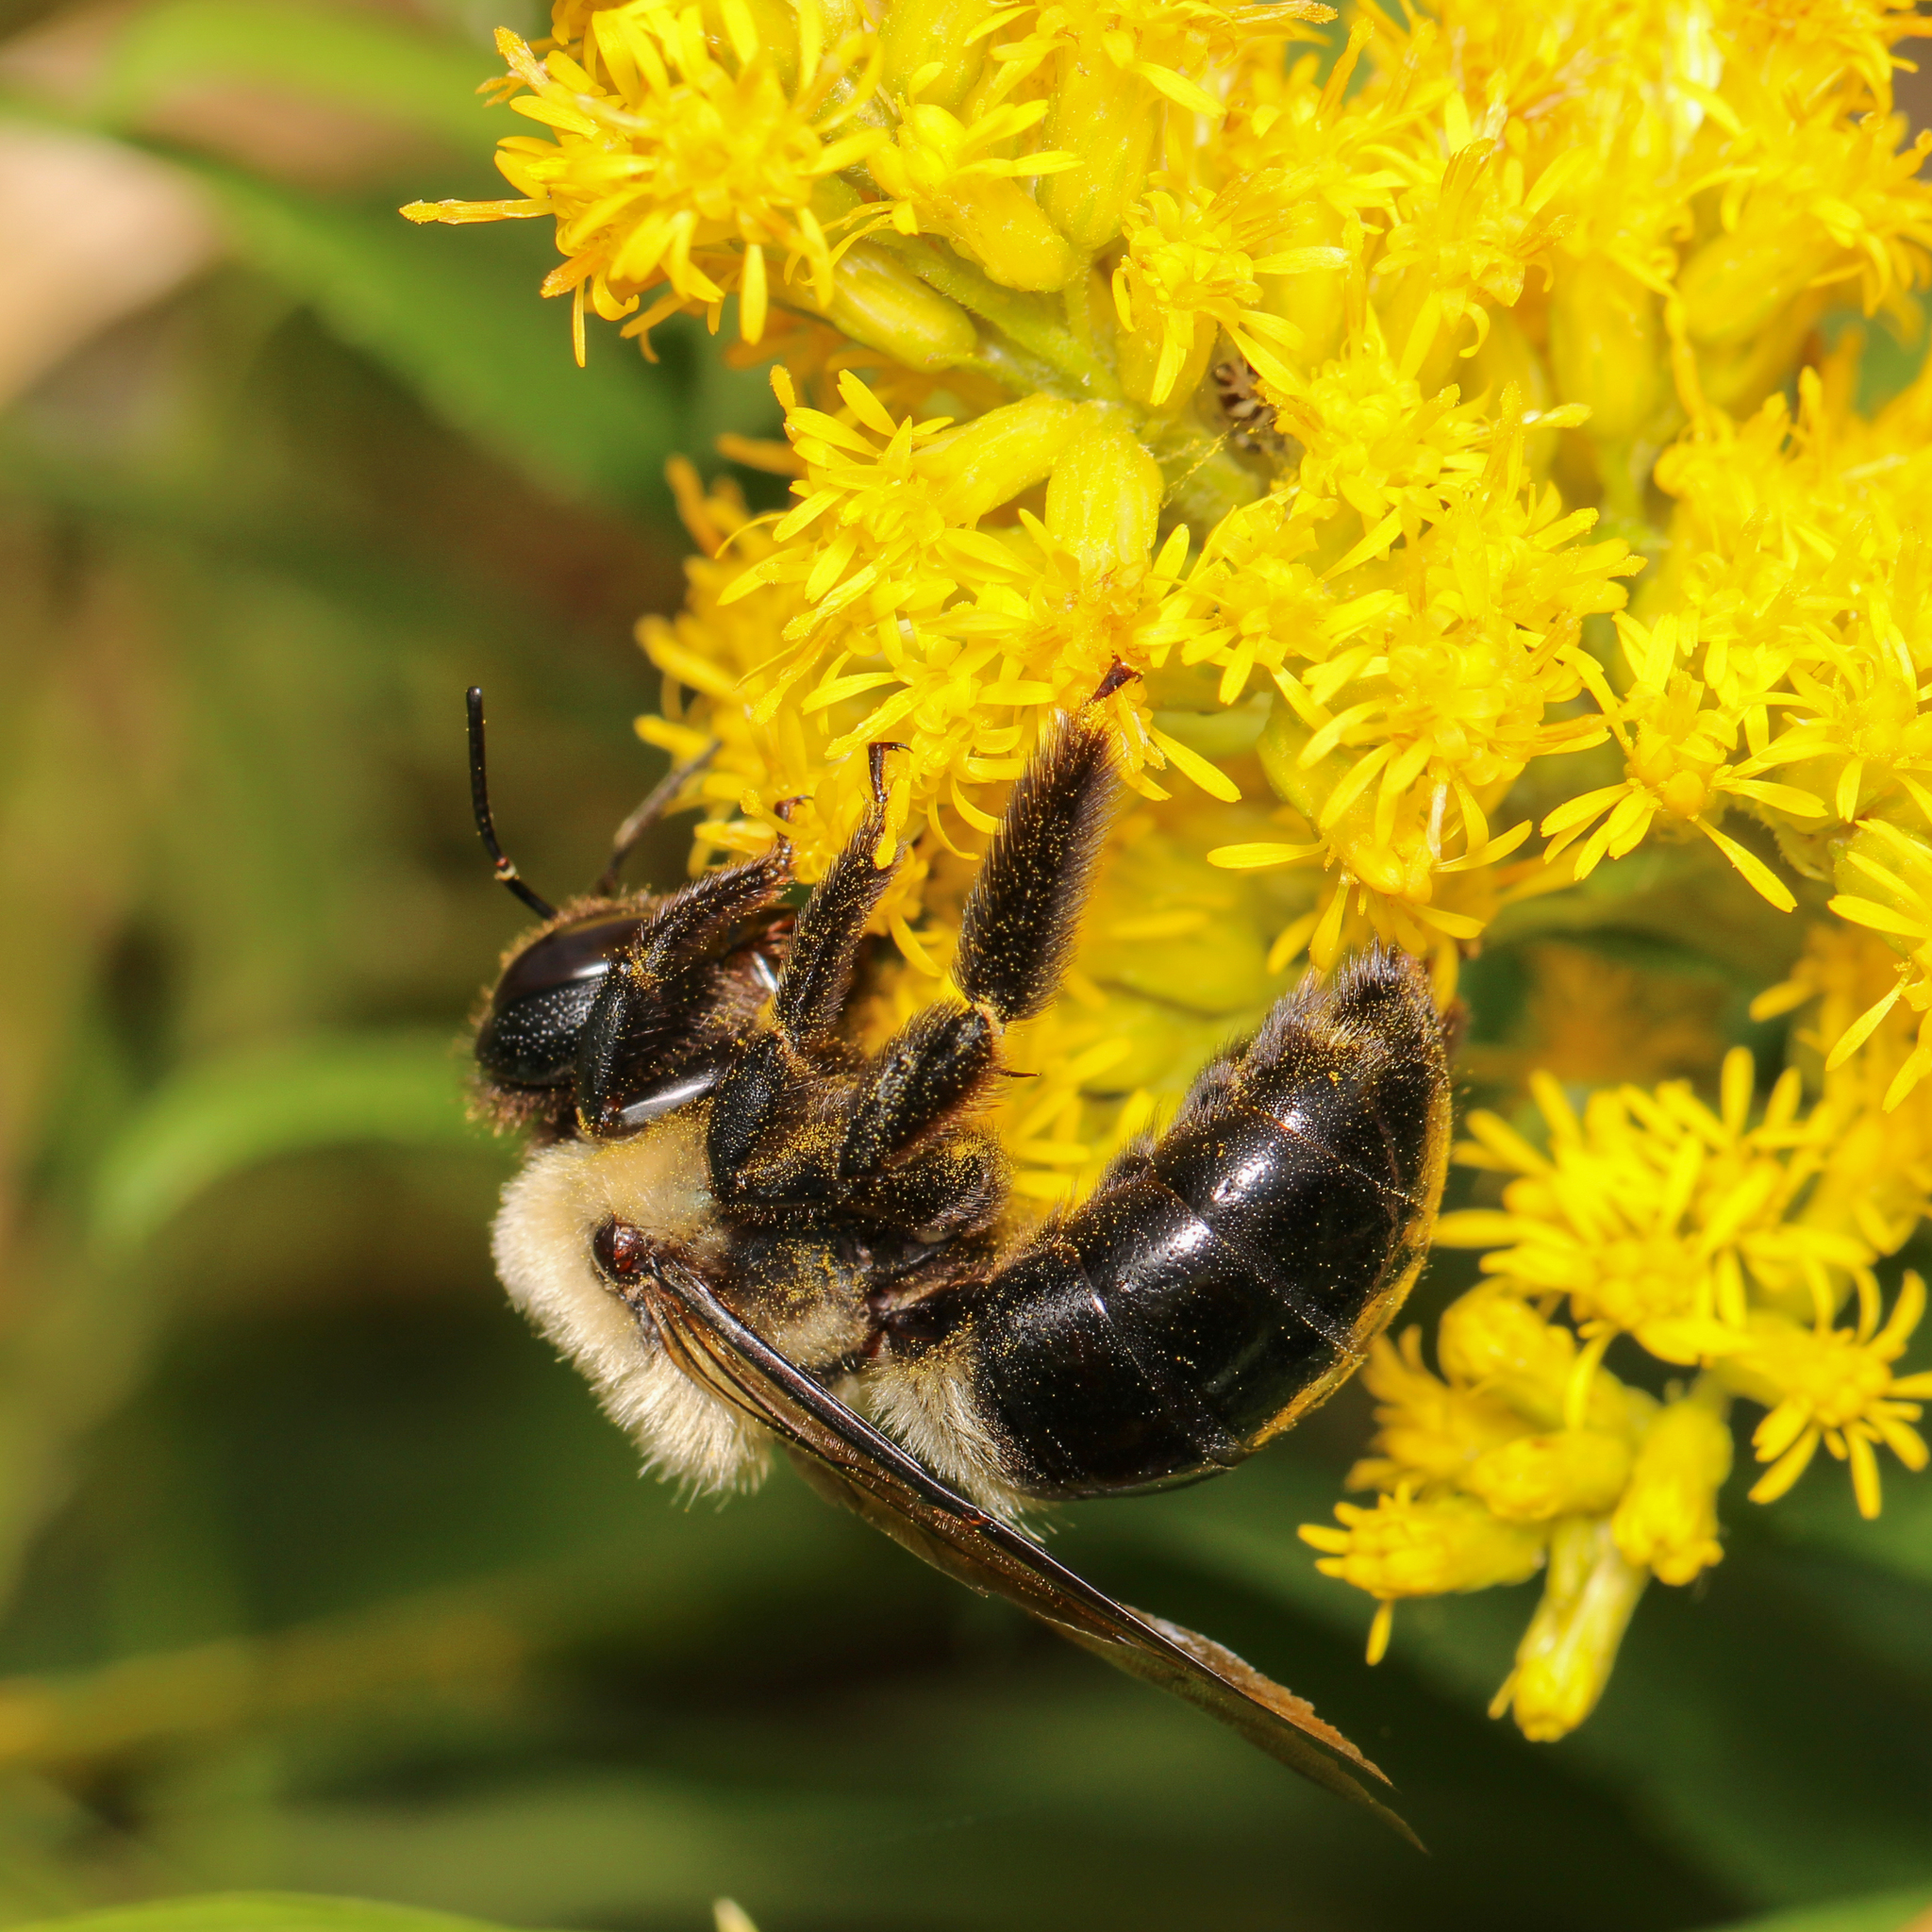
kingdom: Animalia
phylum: Arthropoda
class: Insecta
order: Hymenoptera
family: Apidae
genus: Xylocopa
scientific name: Xylocopa virginica
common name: Carpenter bee
